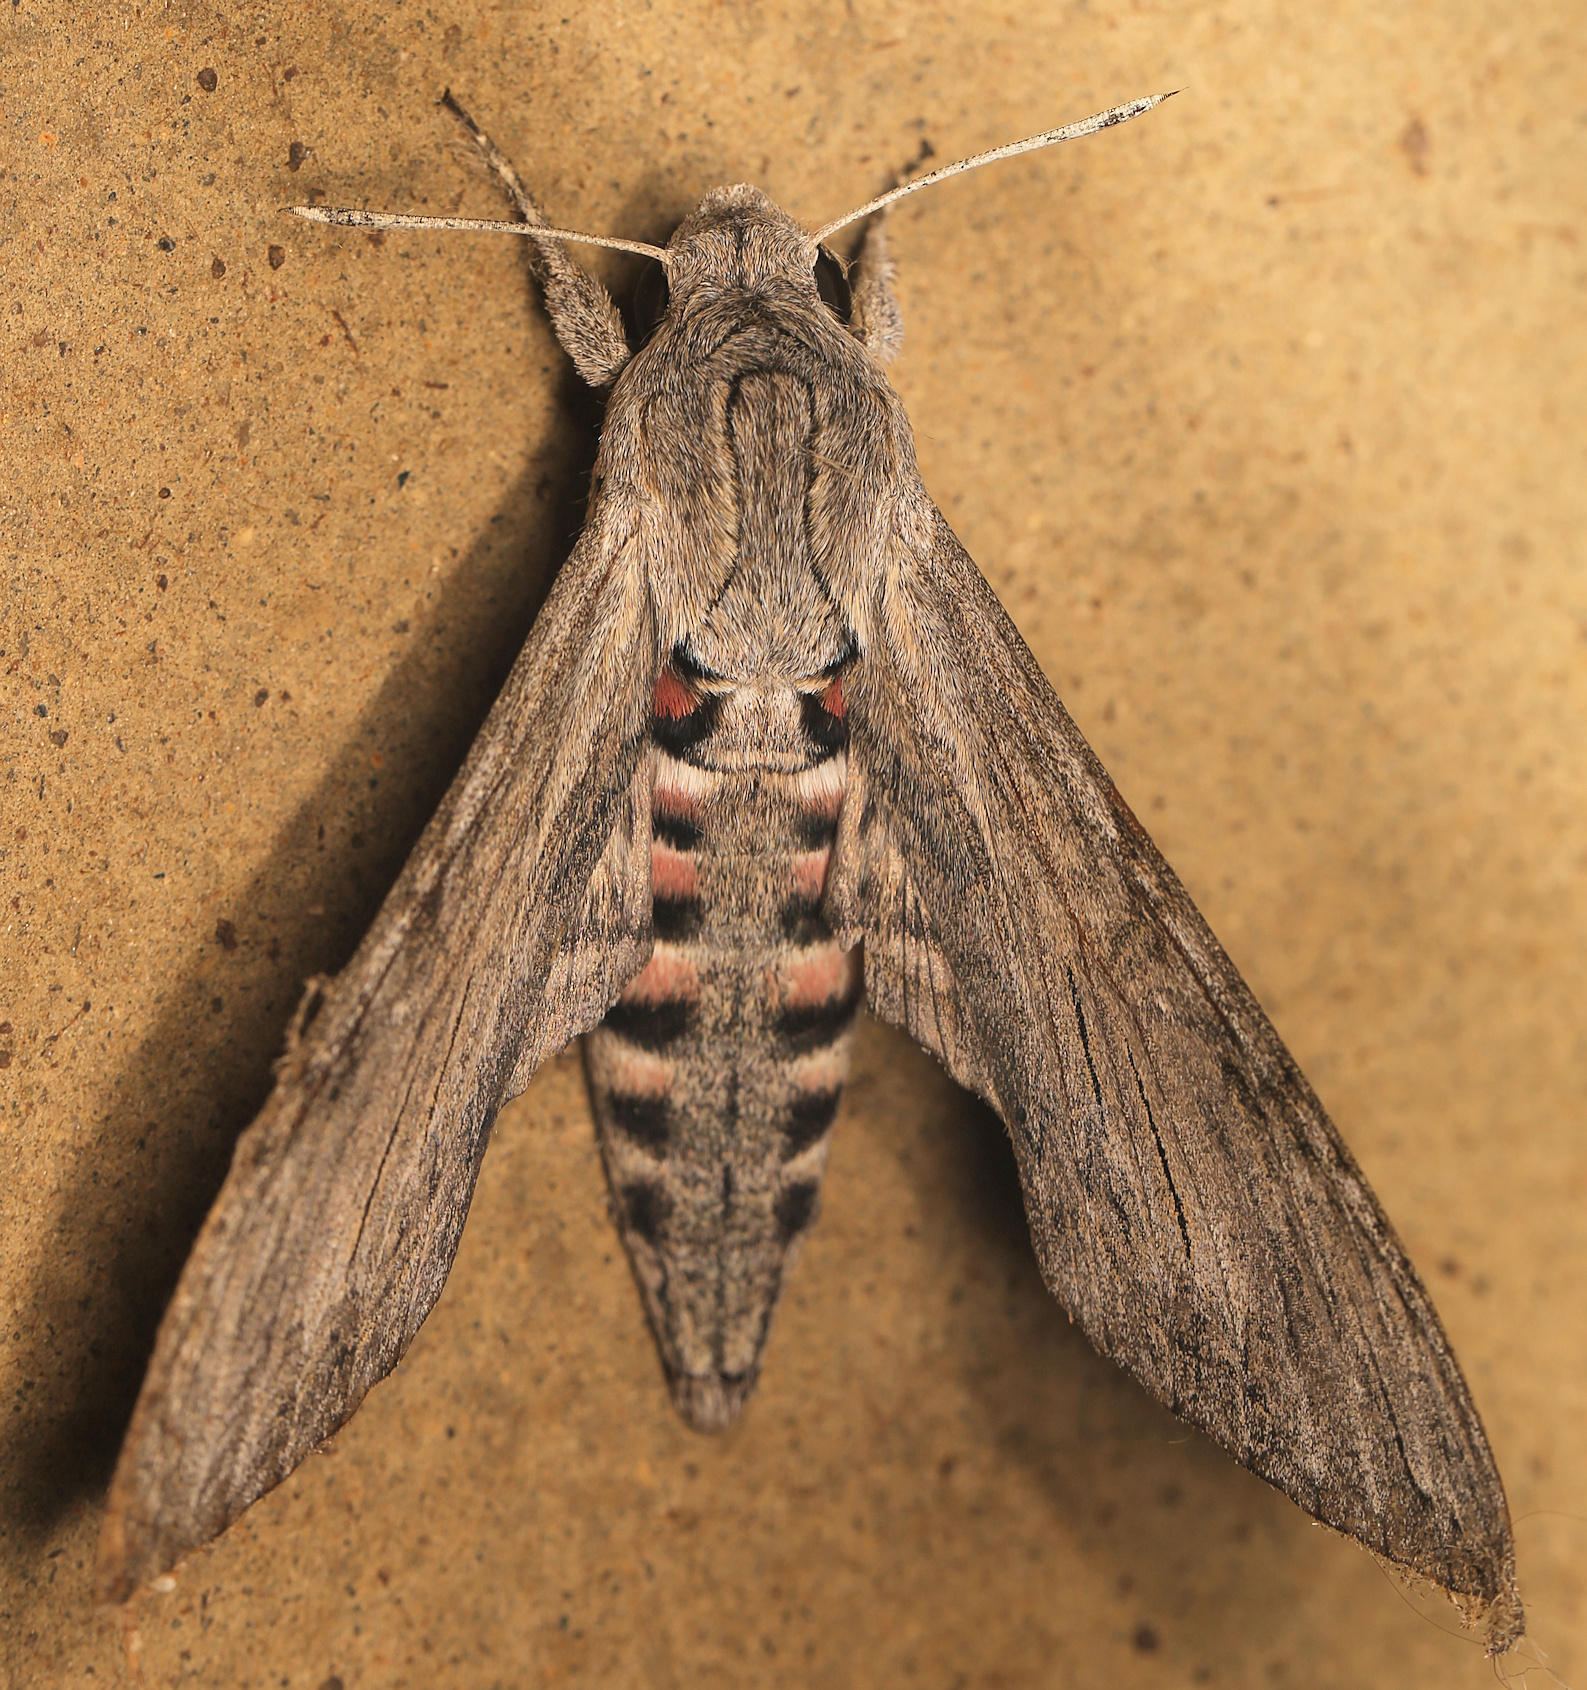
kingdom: Animalia
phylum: Arthropoda
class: Insecta
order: Lepidoptera
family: Sphingidae
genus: Agrius
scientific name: Agrius convolvuli
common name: Convolvulus hawkmoth
